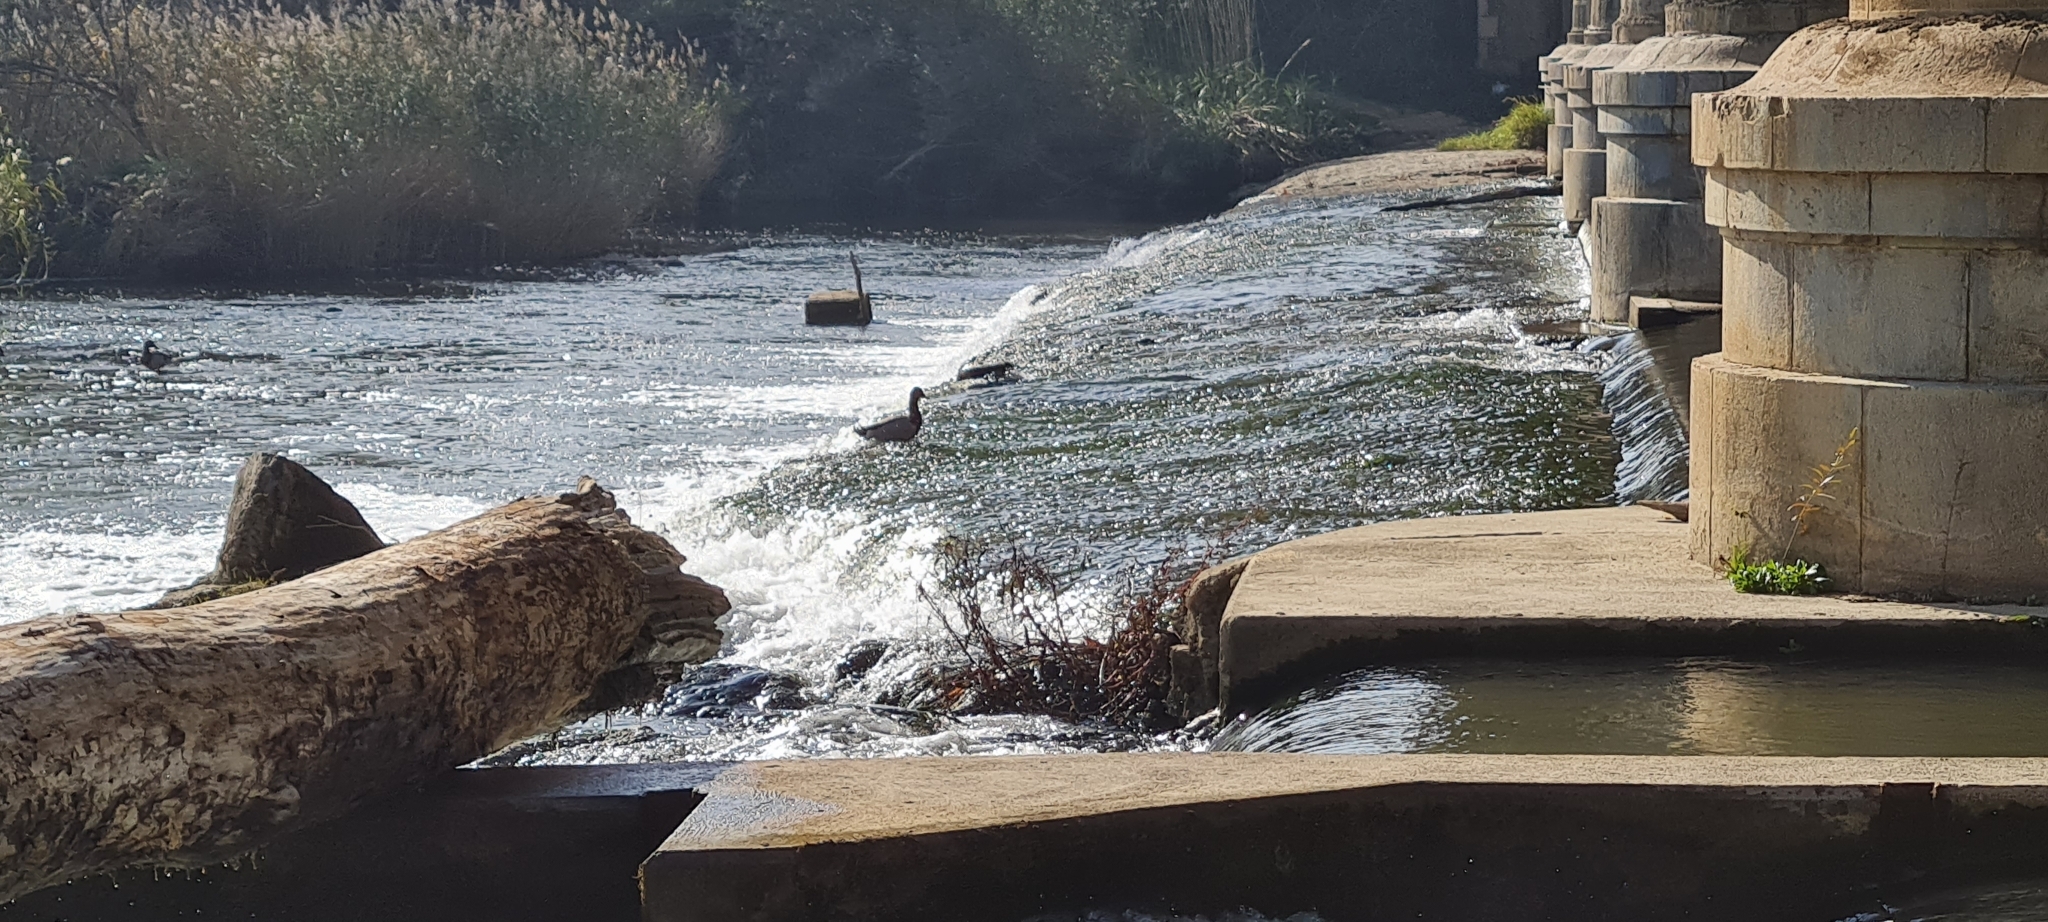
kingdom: Animalia
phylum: Chordata
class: Aves
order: Anseriformes
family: Anatidae
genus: Anas
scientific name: Anas platyrhynchos
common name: Mallard
